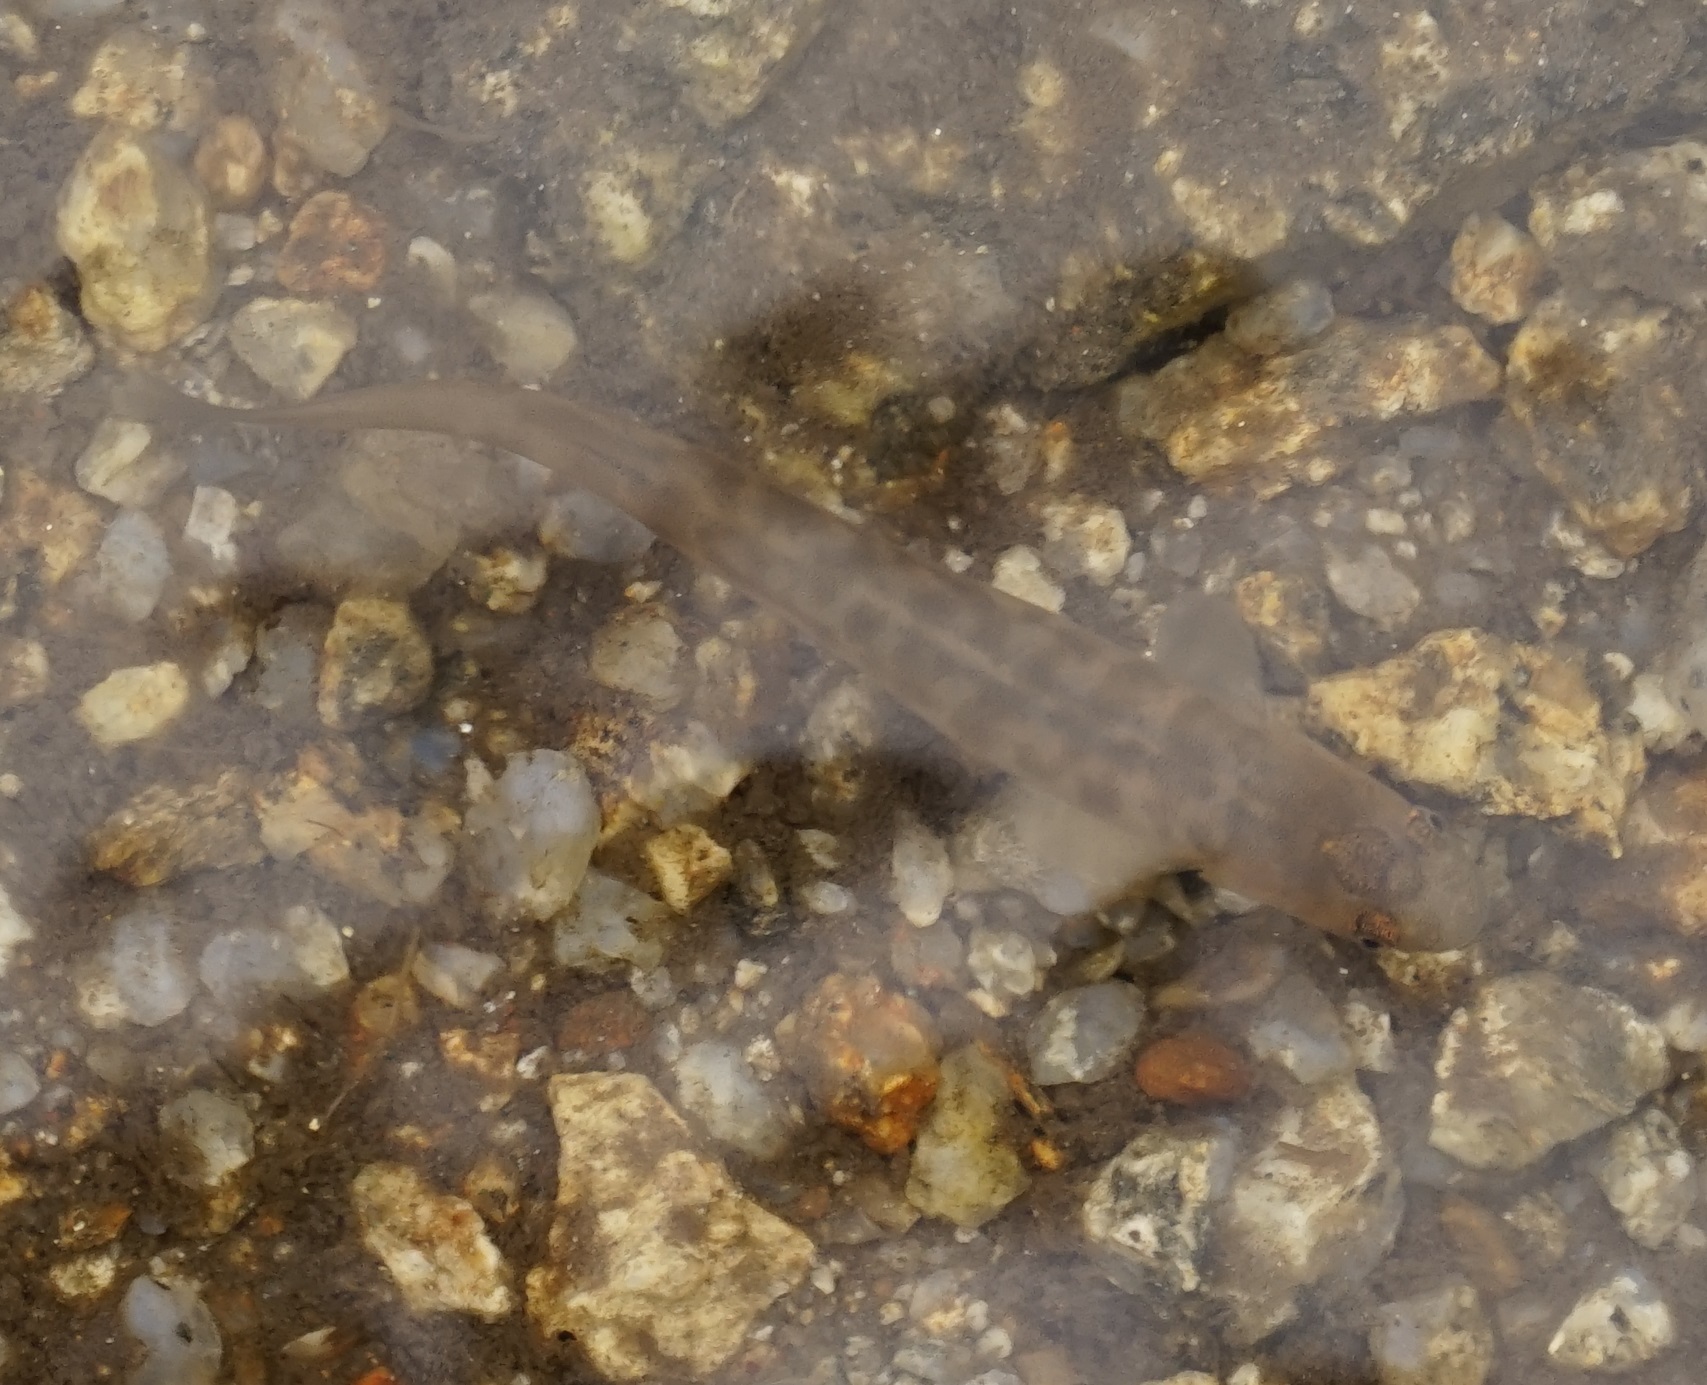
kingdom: Animalia
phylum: Chordata
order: Osmeriformes
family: Galaxiidae
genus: Galaxias
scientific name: Galaxias olidus
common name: Barred galaxias
